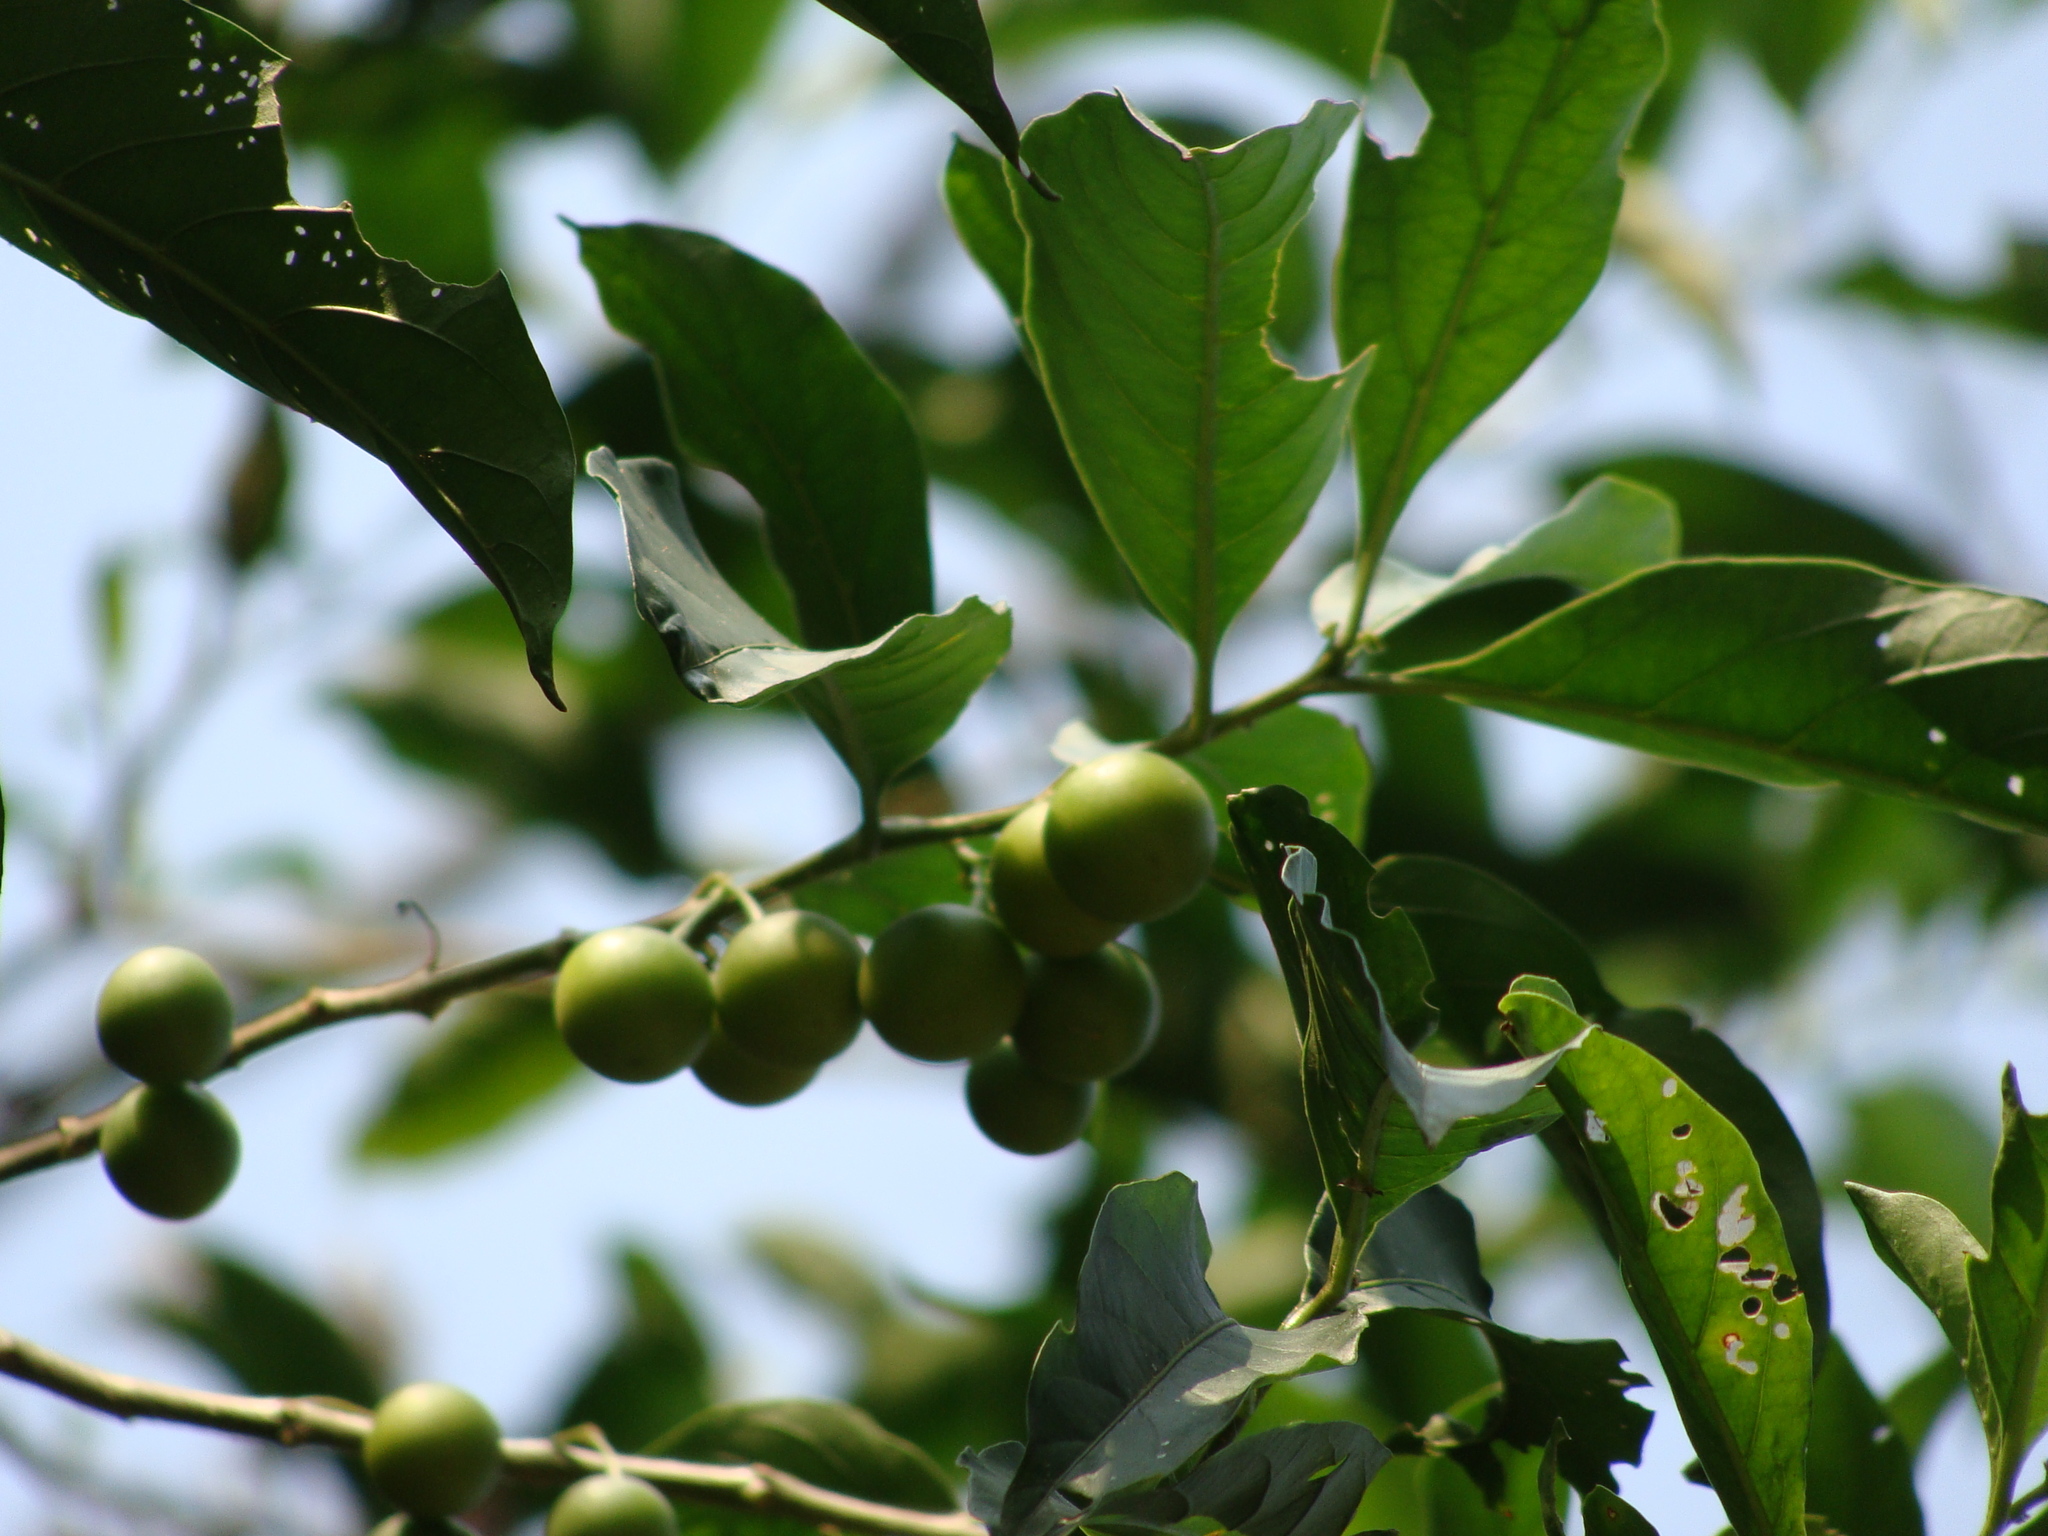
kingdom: Plantae
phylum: Tracheophyta
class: Magnoliopsida
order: Solanales
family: Solanaceae
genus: Solanum
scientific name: Solanum aphyodendron
